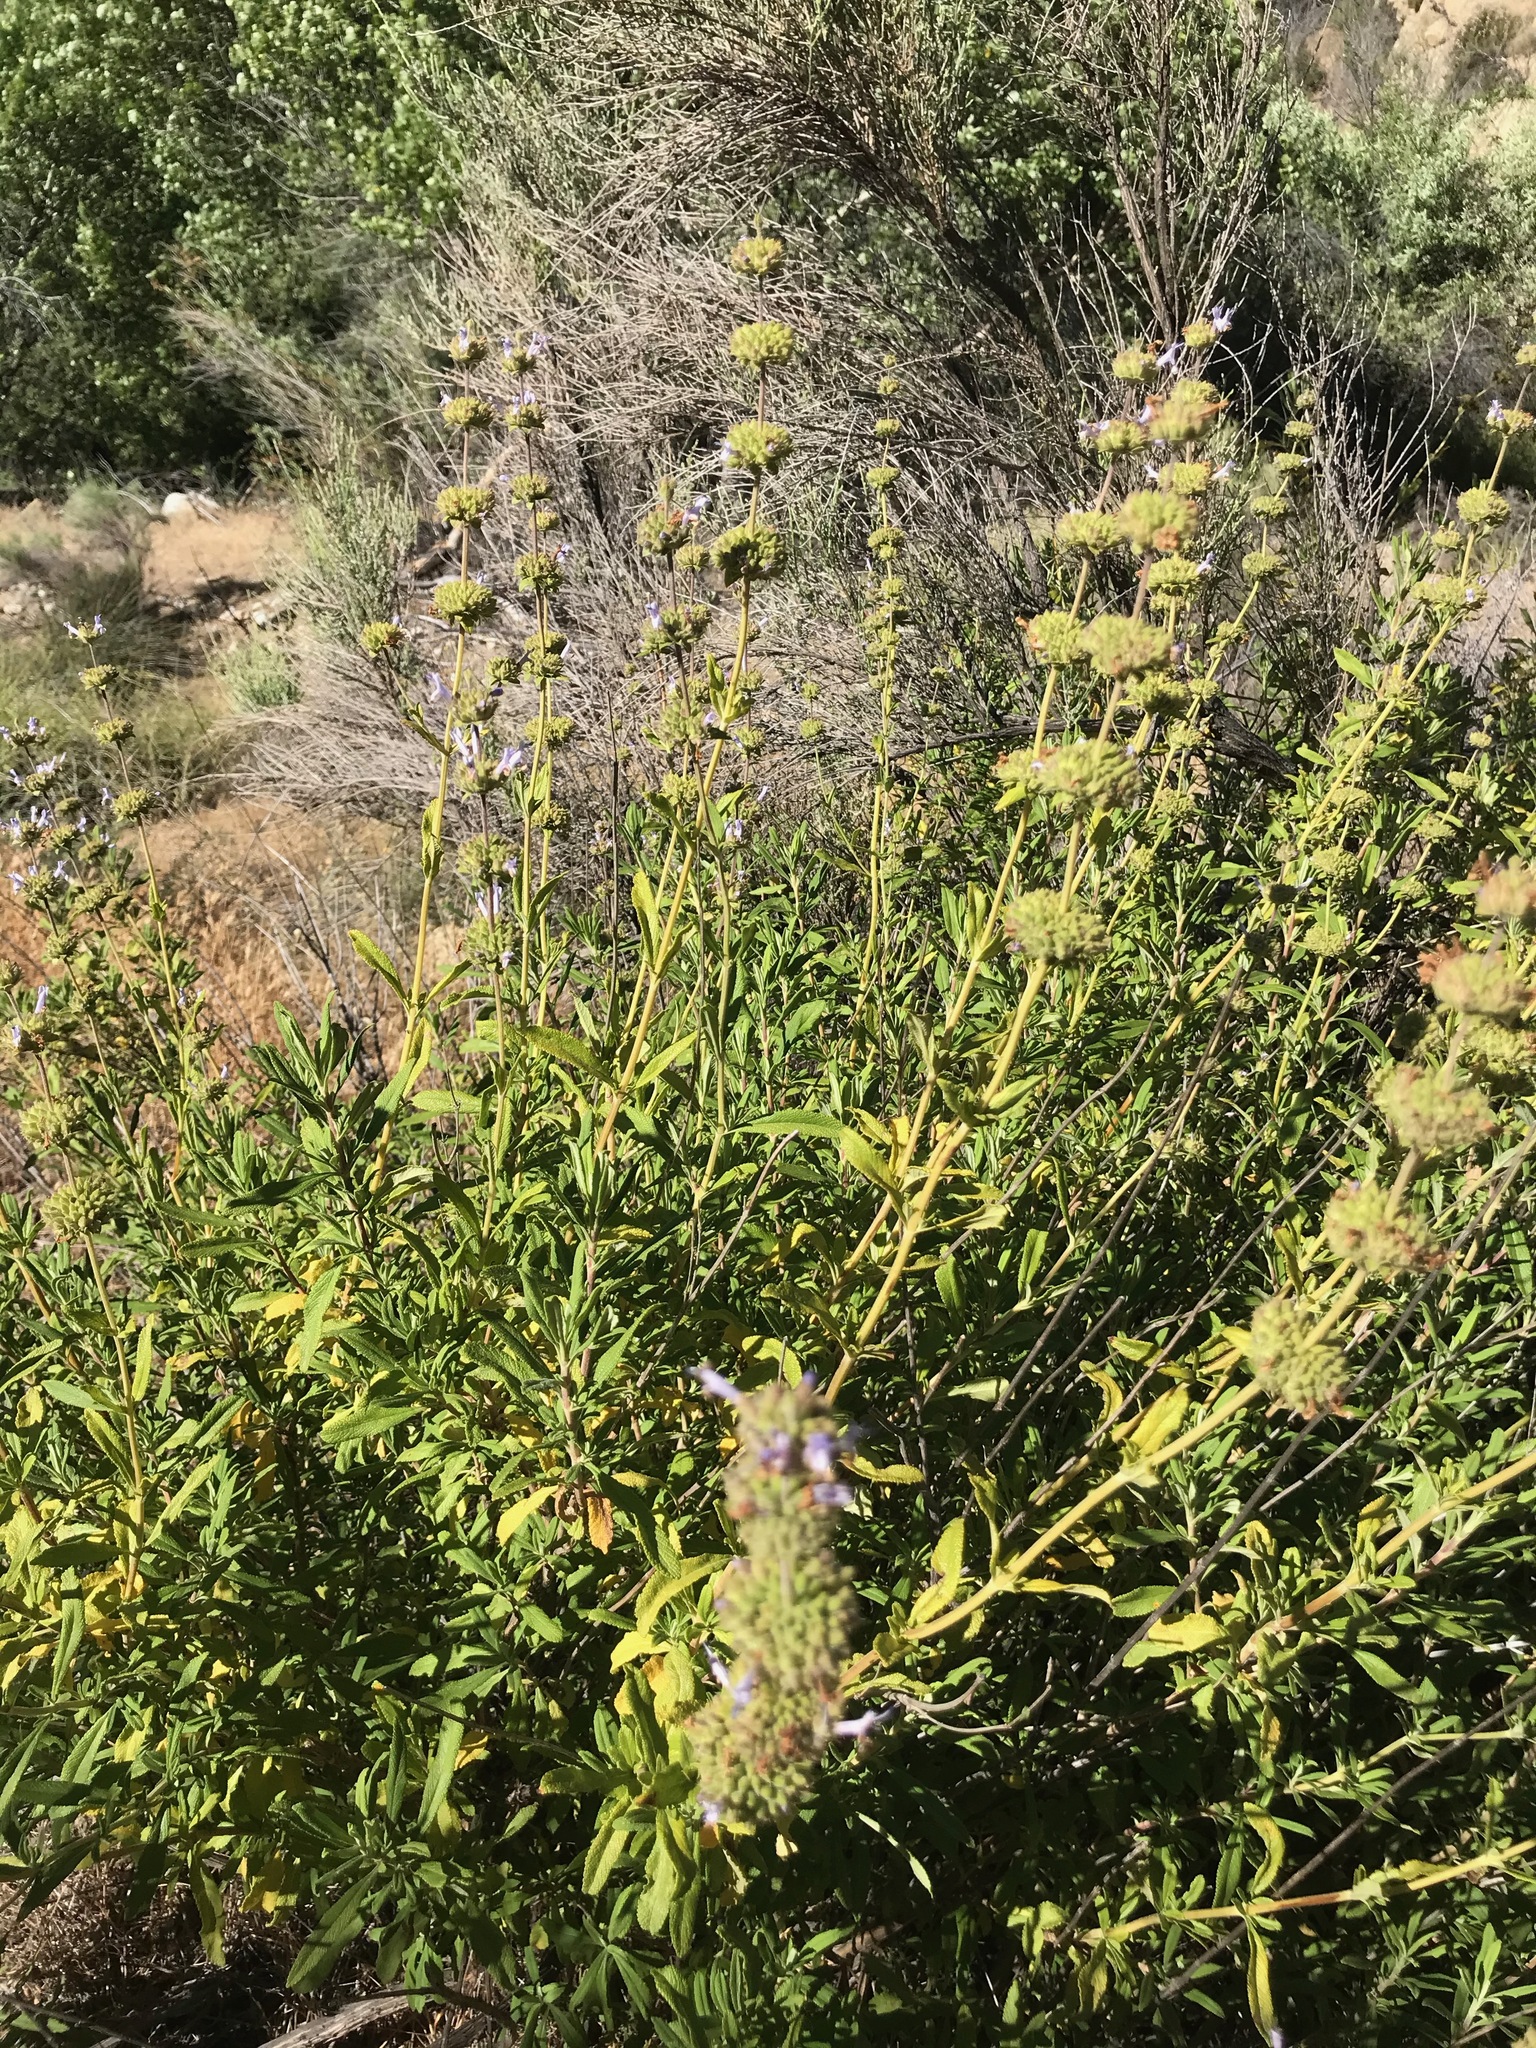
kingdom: Plantae
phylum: Tracheophyta
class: Magnoliopsida
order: Lamiales
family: Lamiaceae
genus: Salvia
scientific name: Salvia mellifera
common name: Black sage
